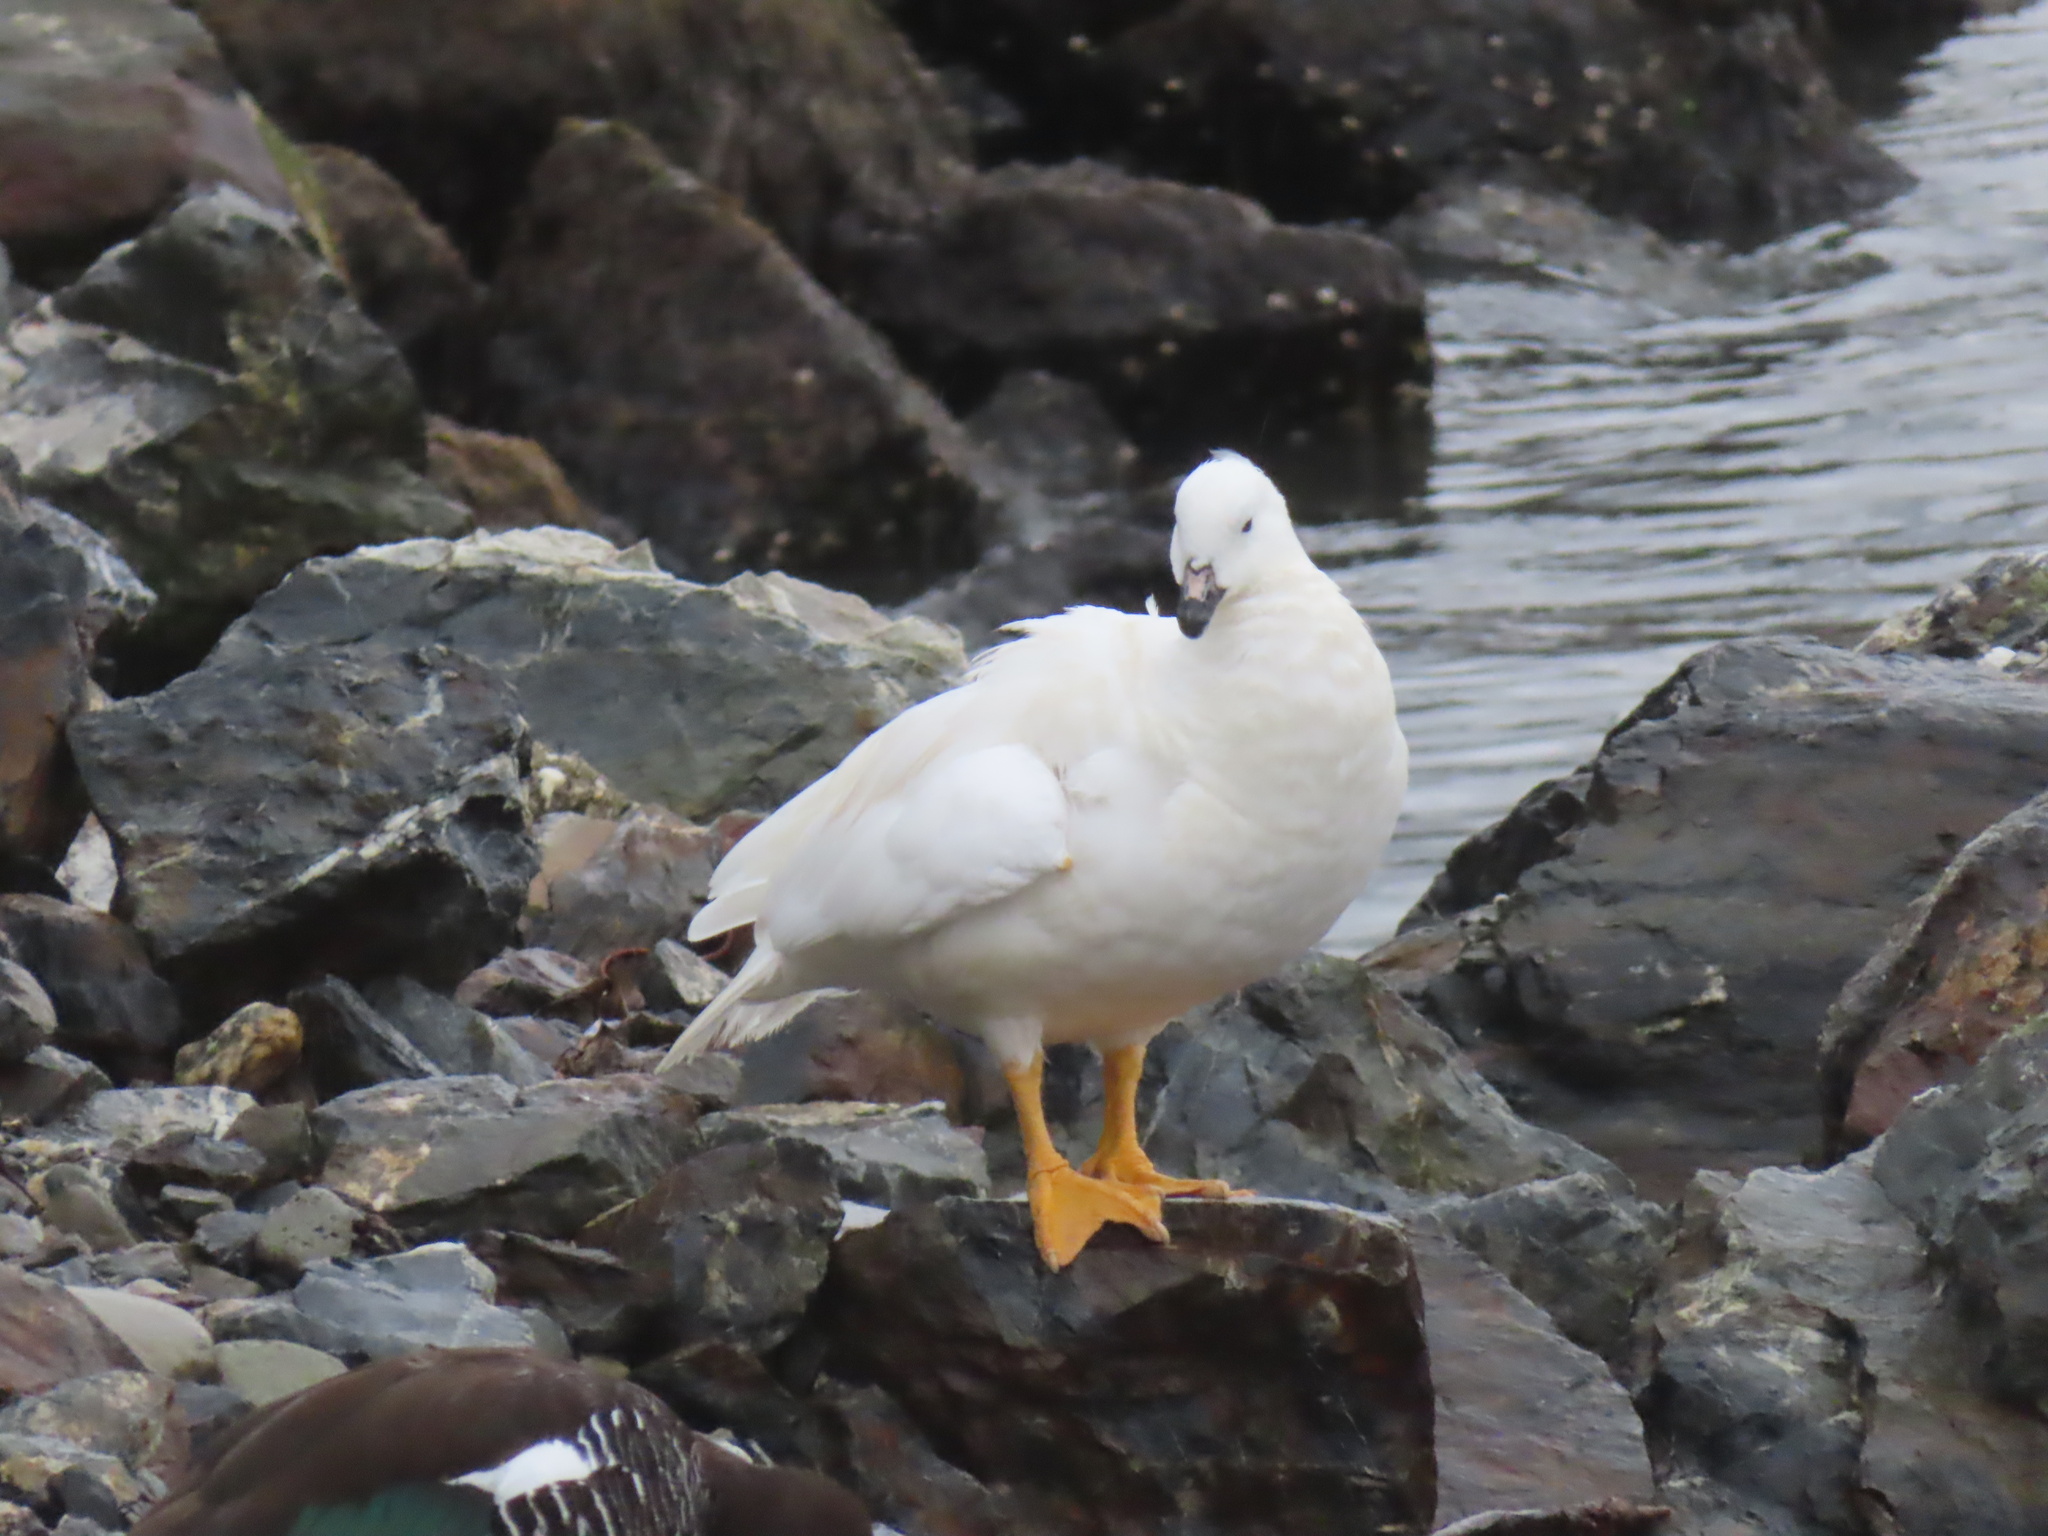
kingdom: Animalia
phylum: Chordata
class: Aves
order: Anseriformes
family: Anatidae
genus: Chloephaga
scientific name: Chloephaga hybrida
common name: Kelp goose
